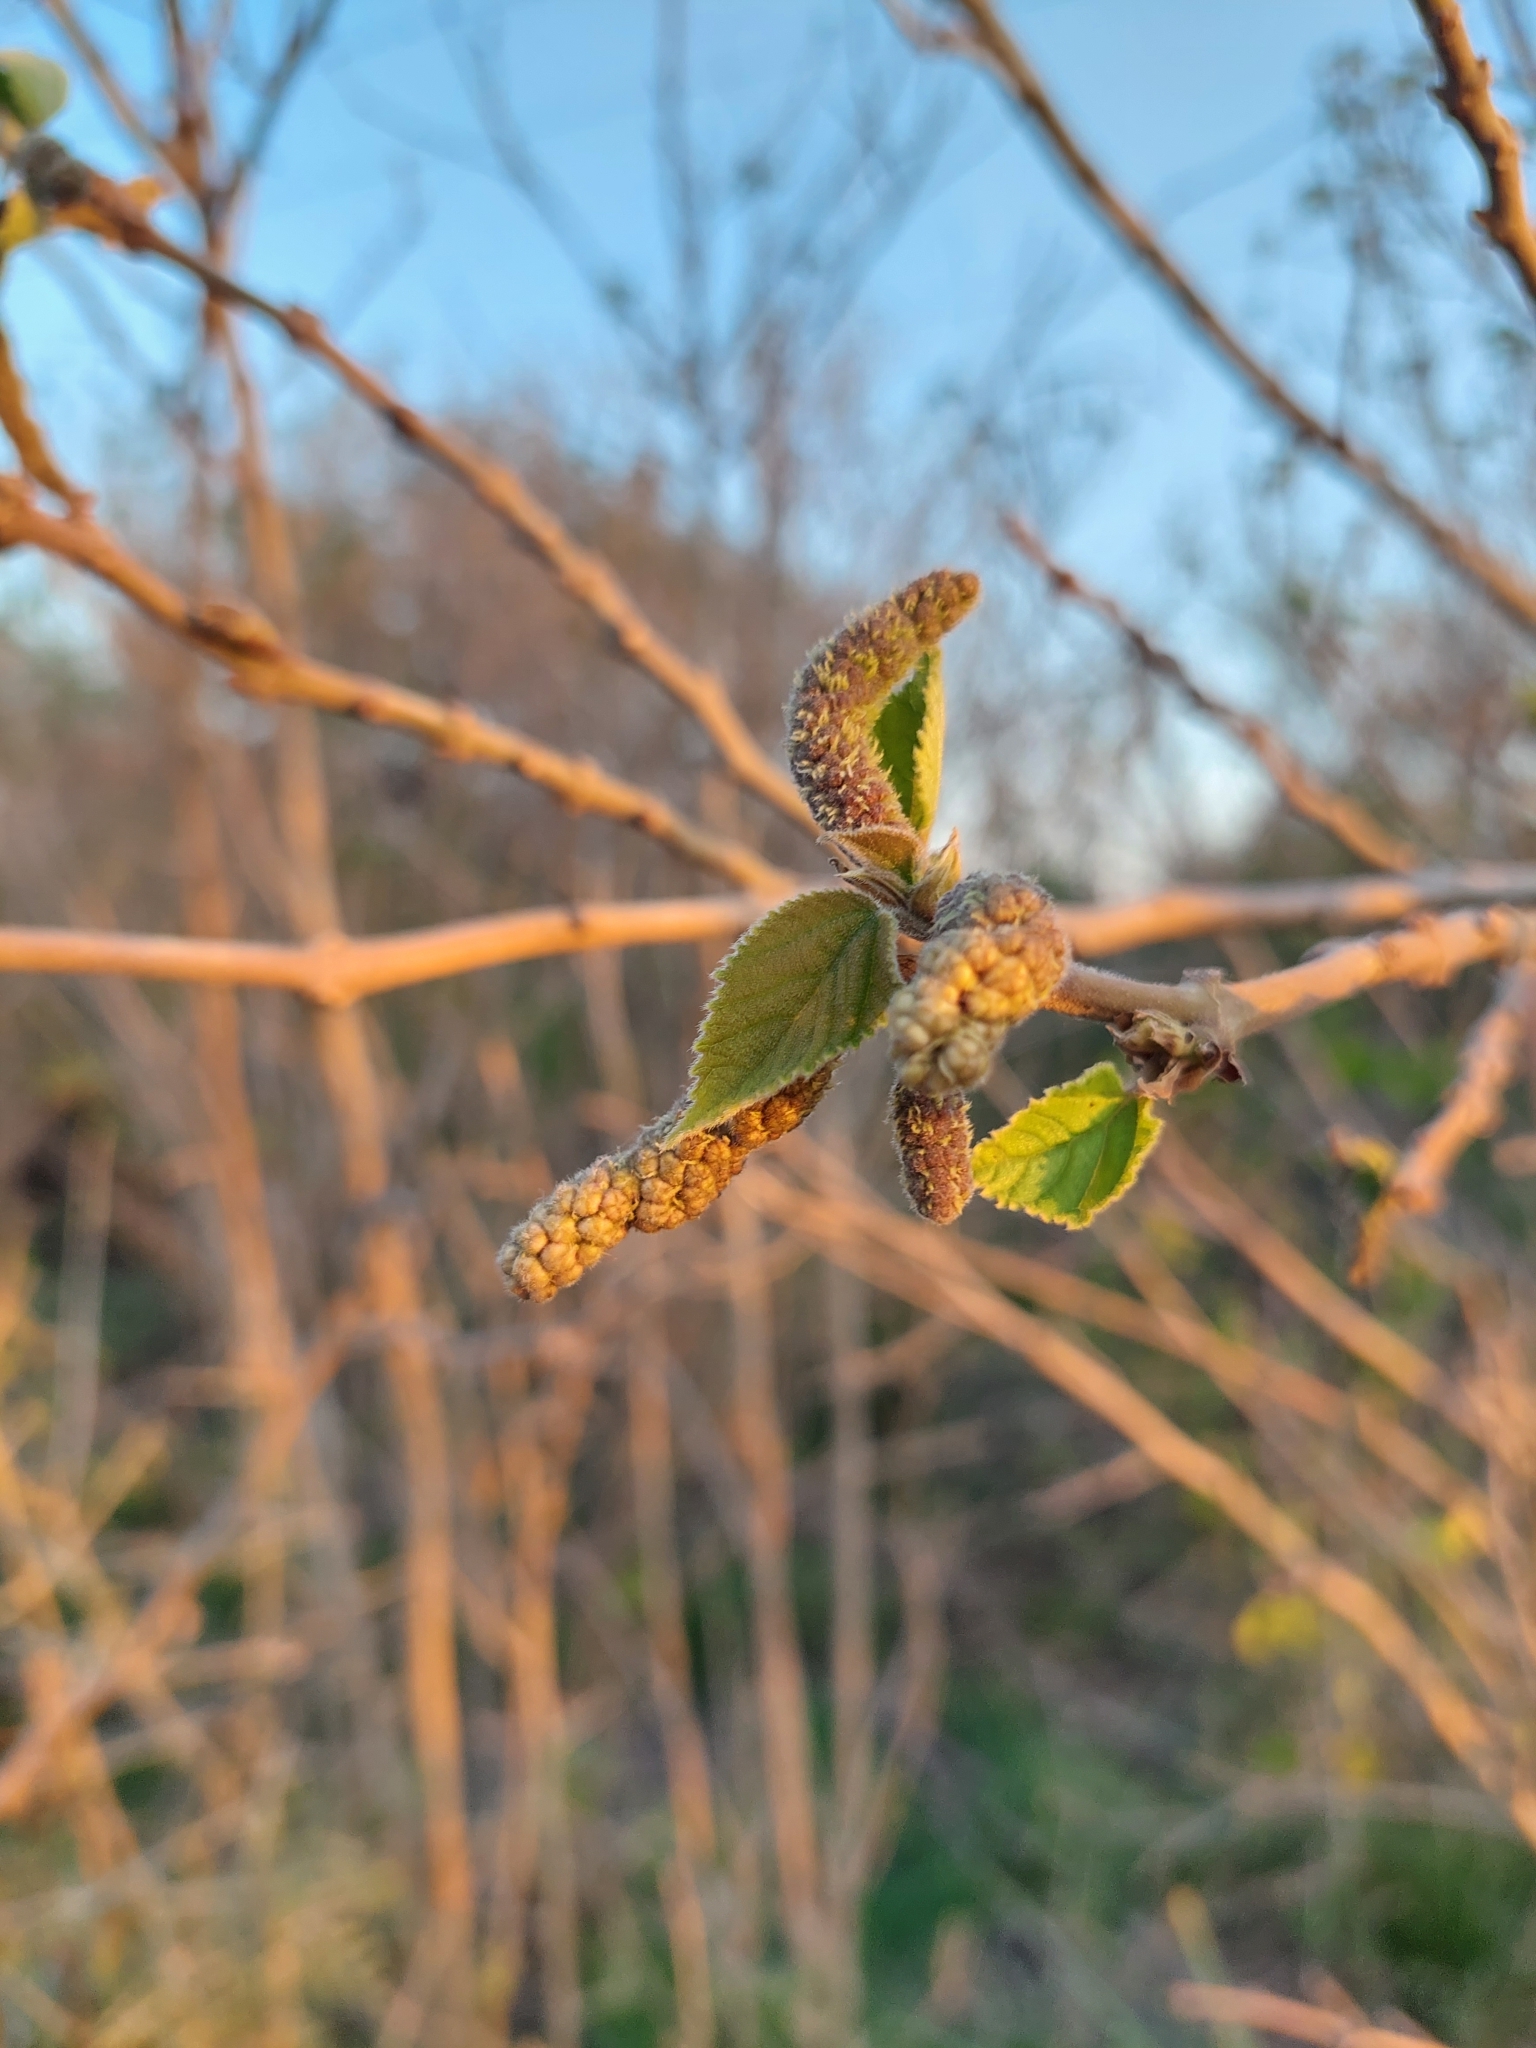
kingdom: Plantae
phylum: Tracheophyta
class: Magnoliopsida
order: Rosales
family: Moraceae
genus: Broussonetia
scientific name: Broussonetia papyrifera
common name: Paper mulberry
